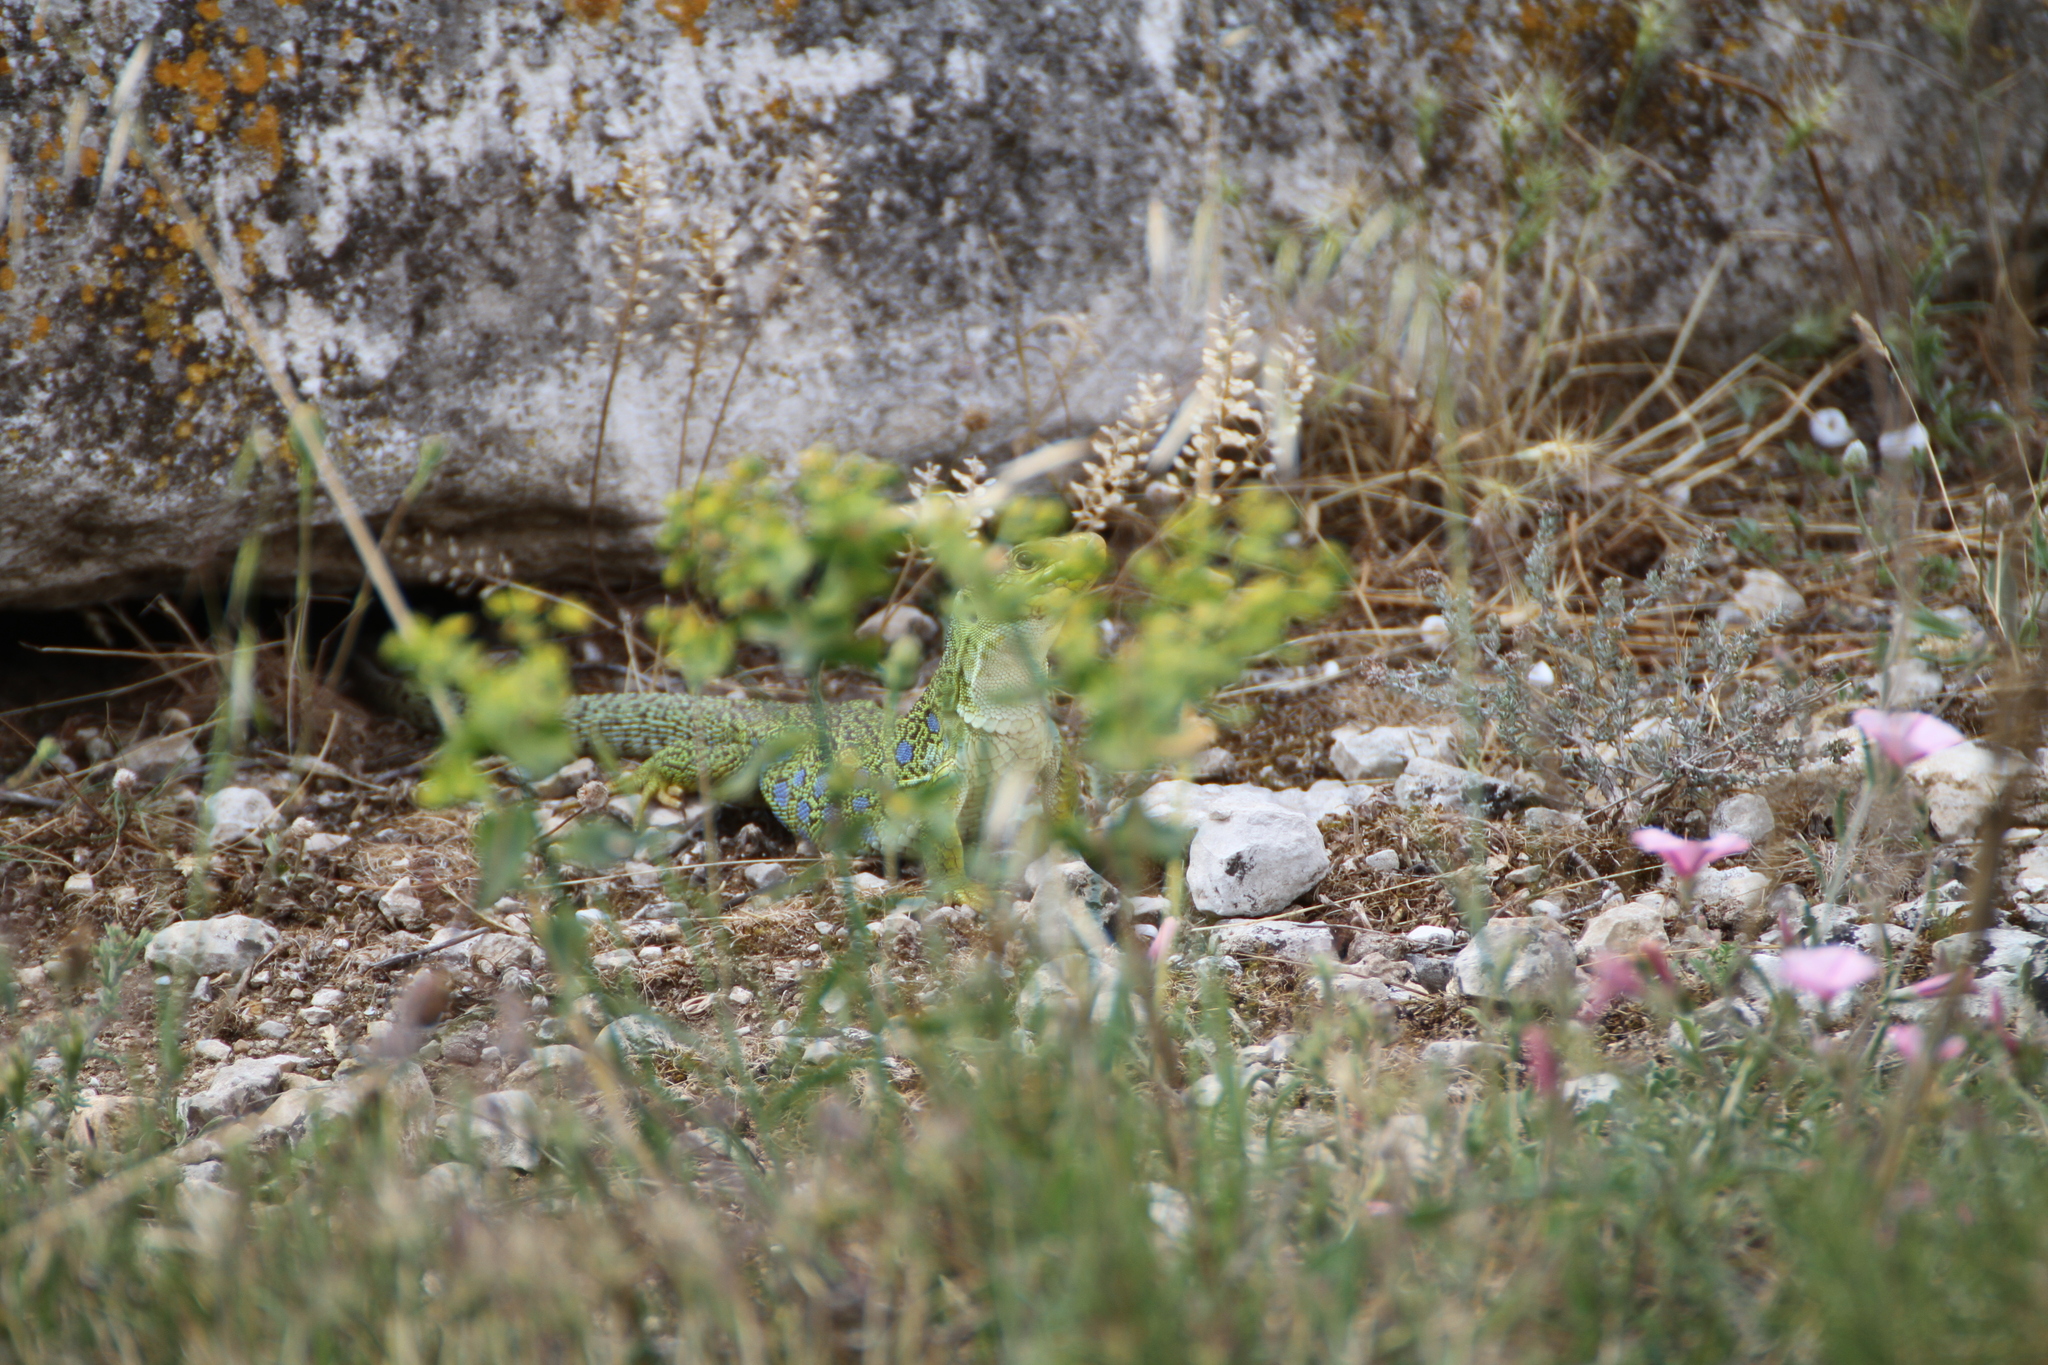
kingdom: Animalia
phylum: Chordata
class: Squamata
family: Lacertidae
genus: Timon
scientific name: Timon lepidus
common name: Ocellated lizard
